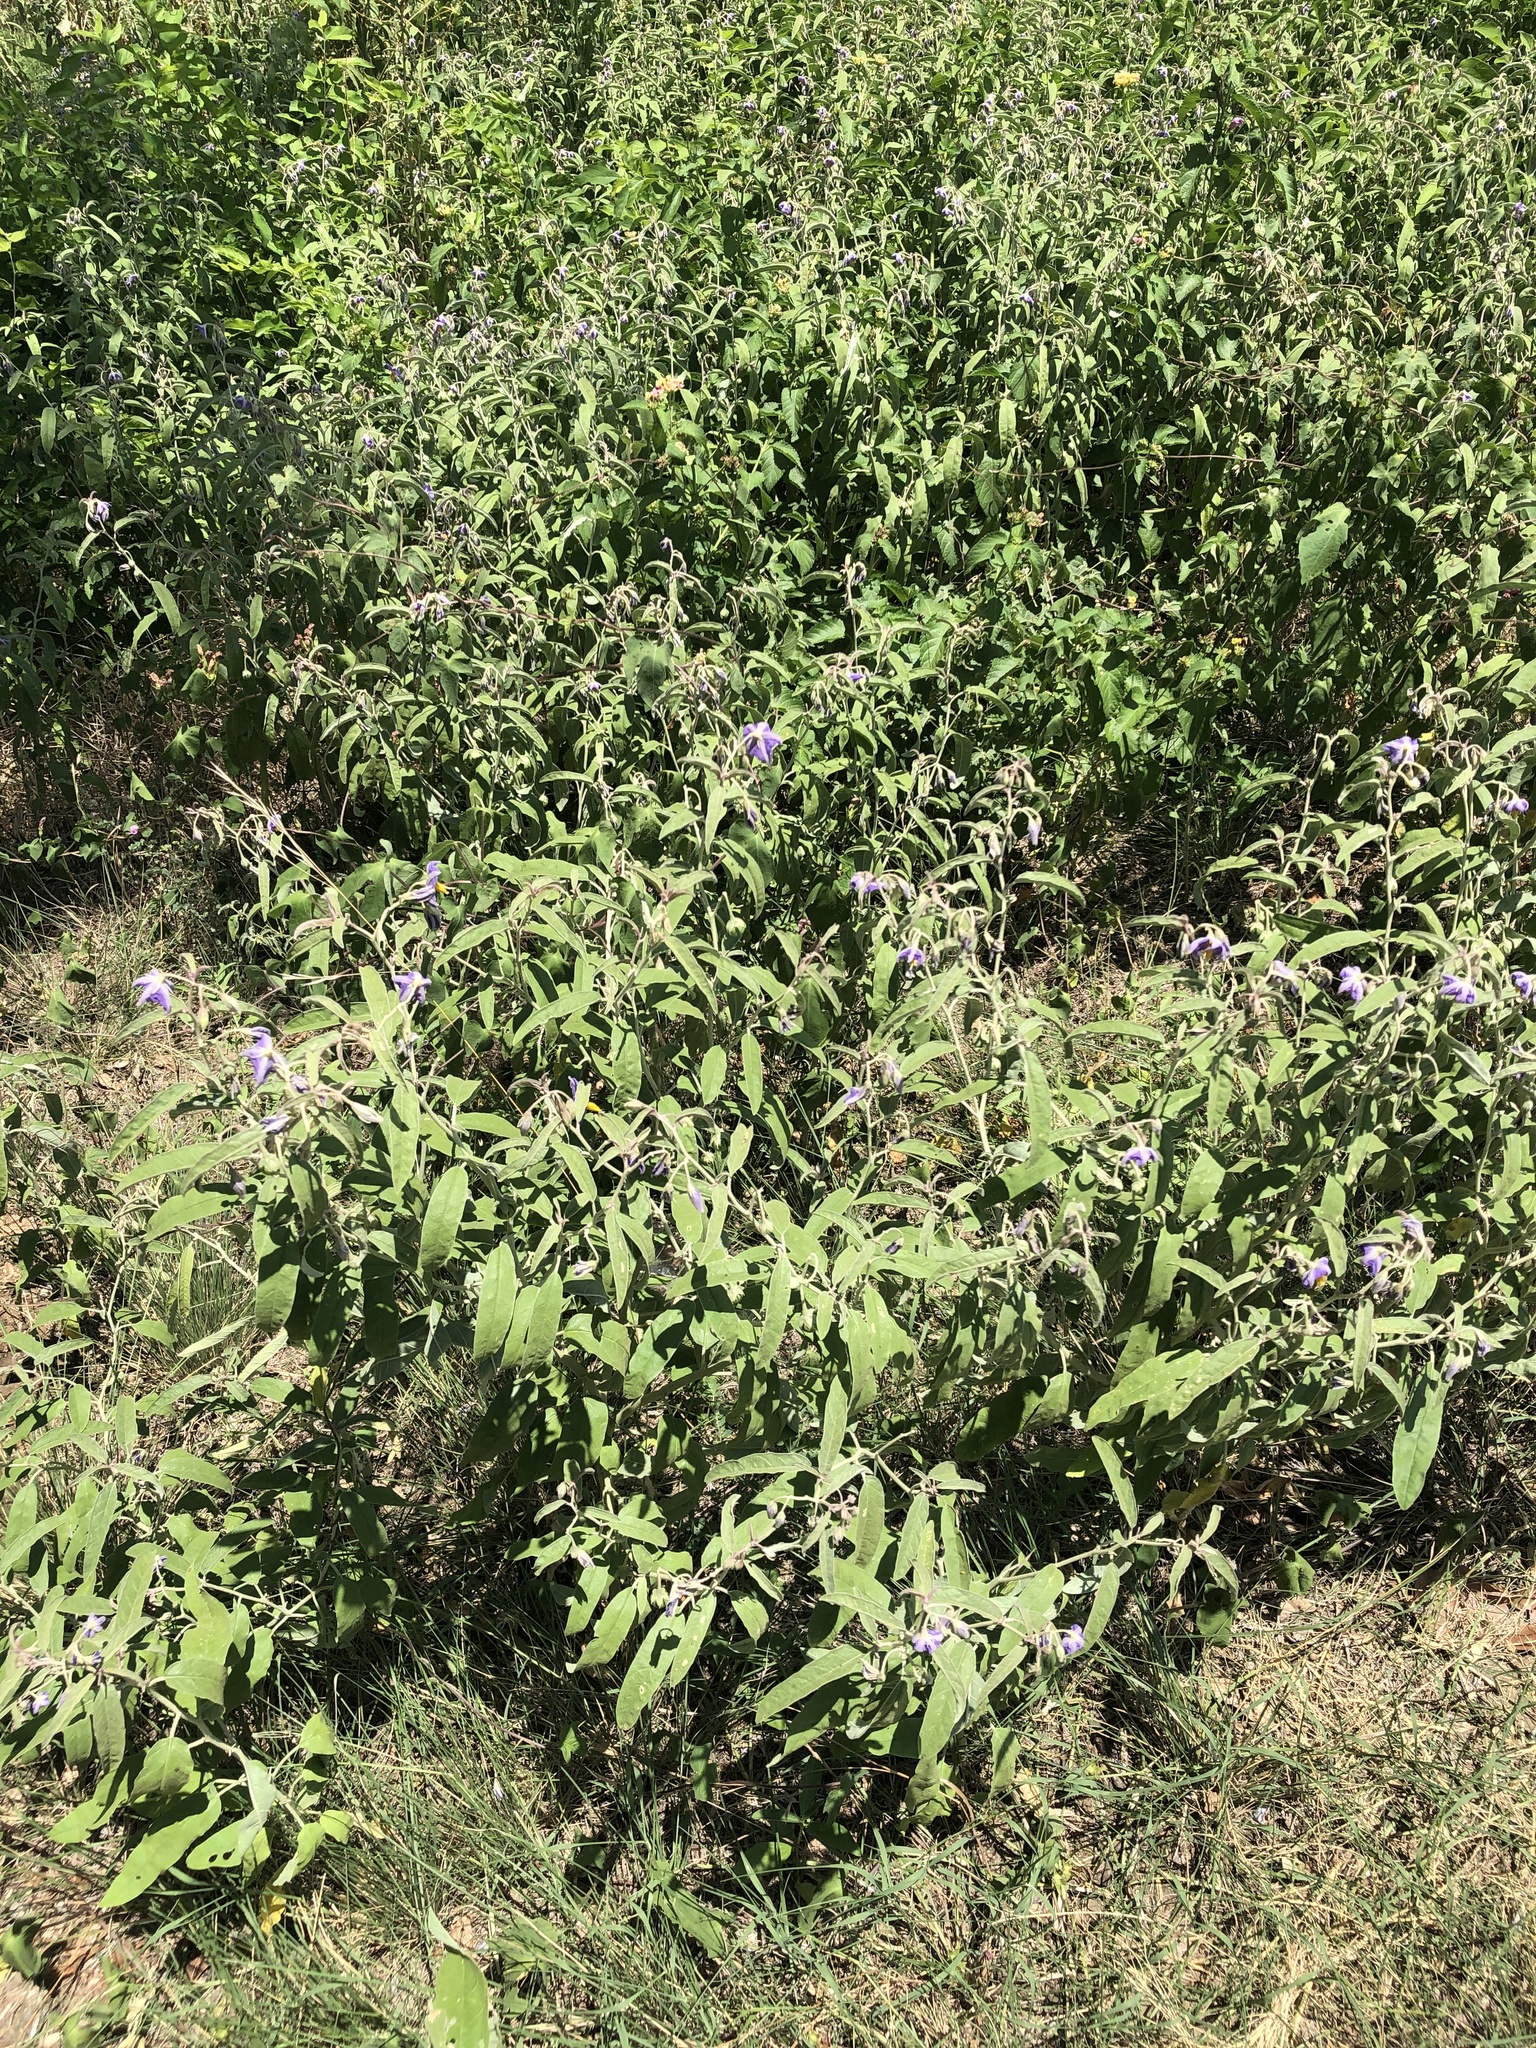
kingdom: Plantae
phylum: Tracheophyta
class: Magnoliopsida
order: Solanales
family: Solanaceae
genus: Solanum
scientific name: Solanum elaeagnifolium
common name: Silverleaf nightshade
